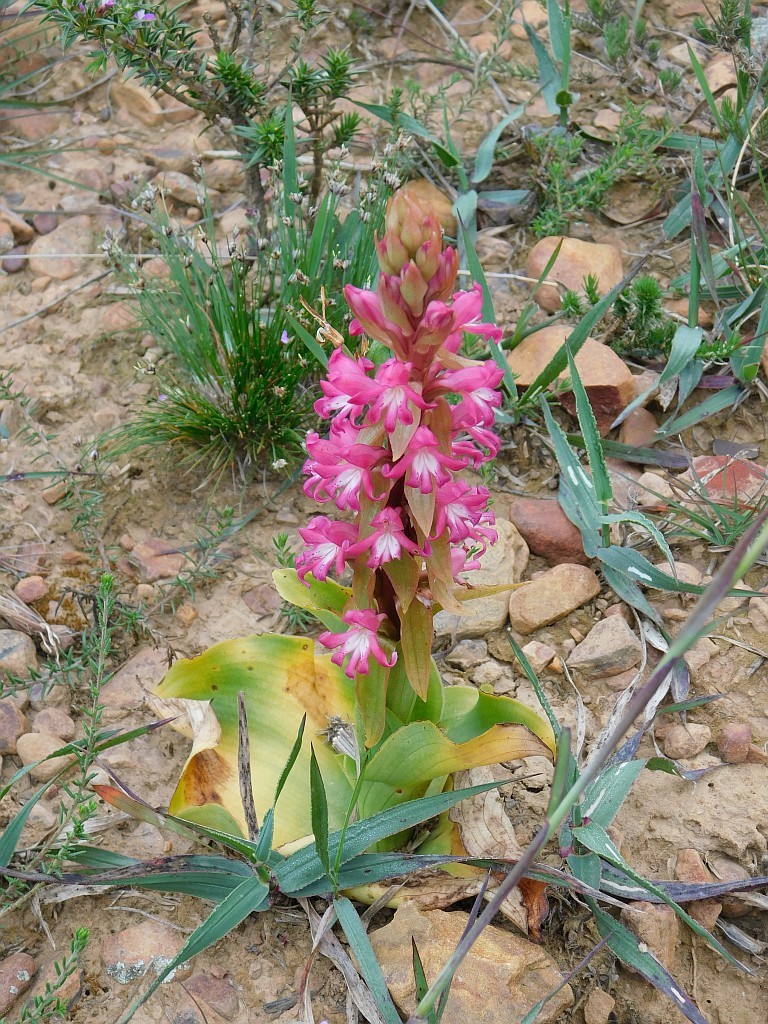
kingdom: Plantae
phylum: Tracheophyta
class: Liliopsida
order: Asparagales
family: Orchidaceae
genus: Satyrium
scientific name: Satyrium erectum
